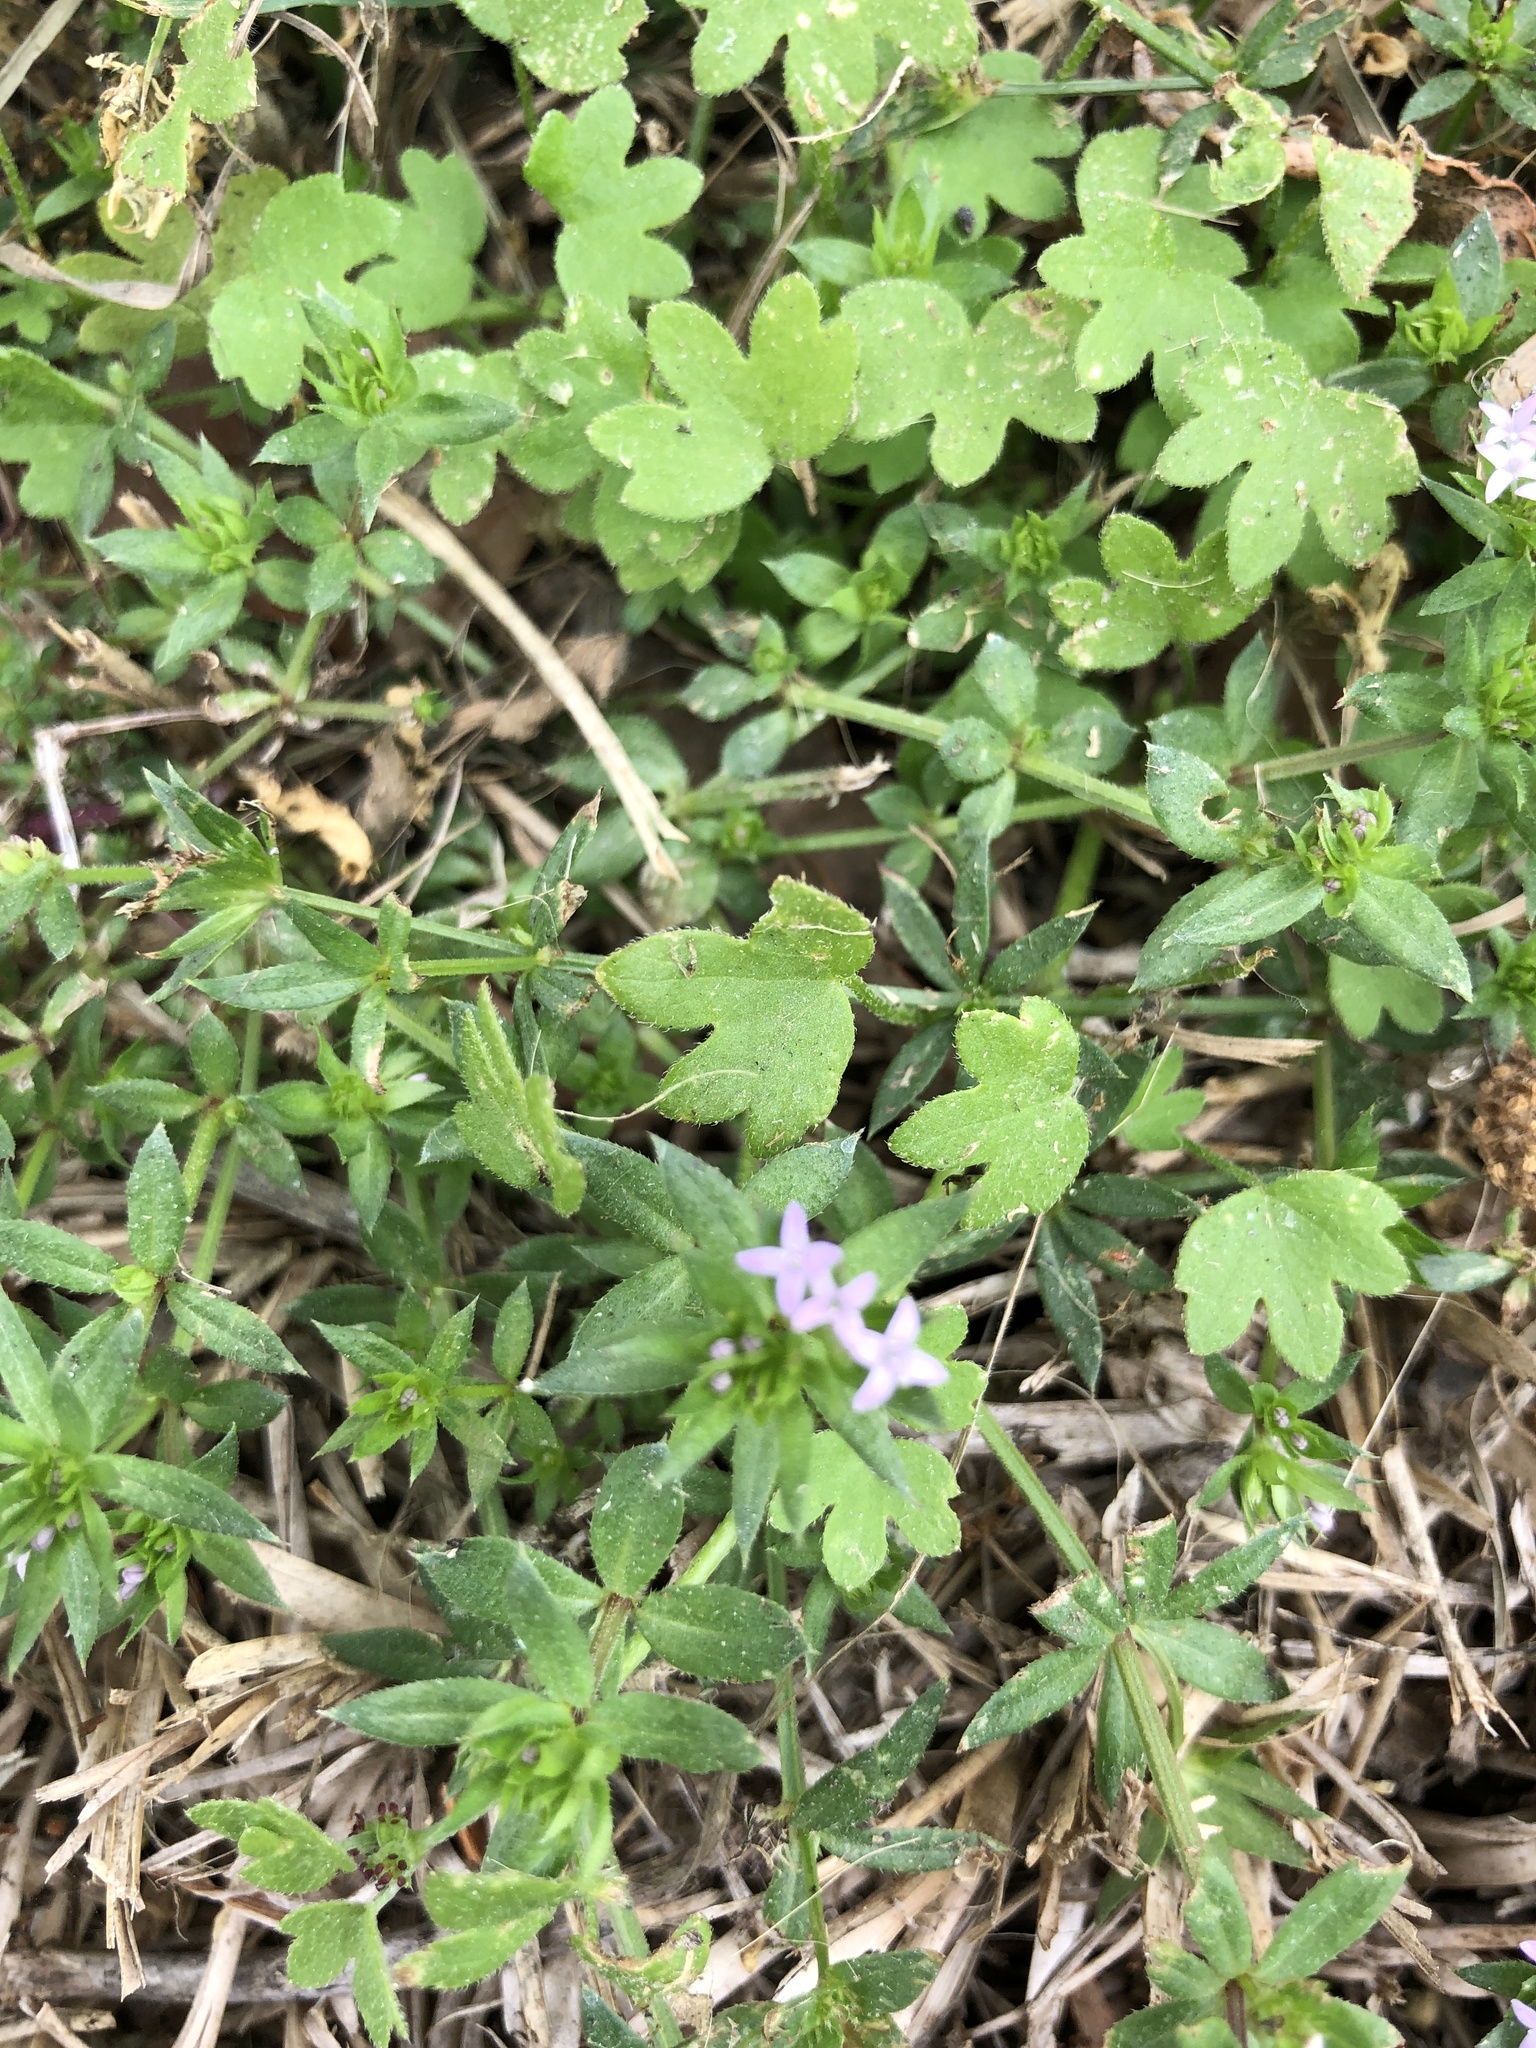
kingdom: Plantae
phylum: Tracheophyta
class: Magnoliopsida
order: Gentianales
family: Rubiaceae
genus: Sherardia
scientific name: Sherardia arvensis
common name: Field madder
